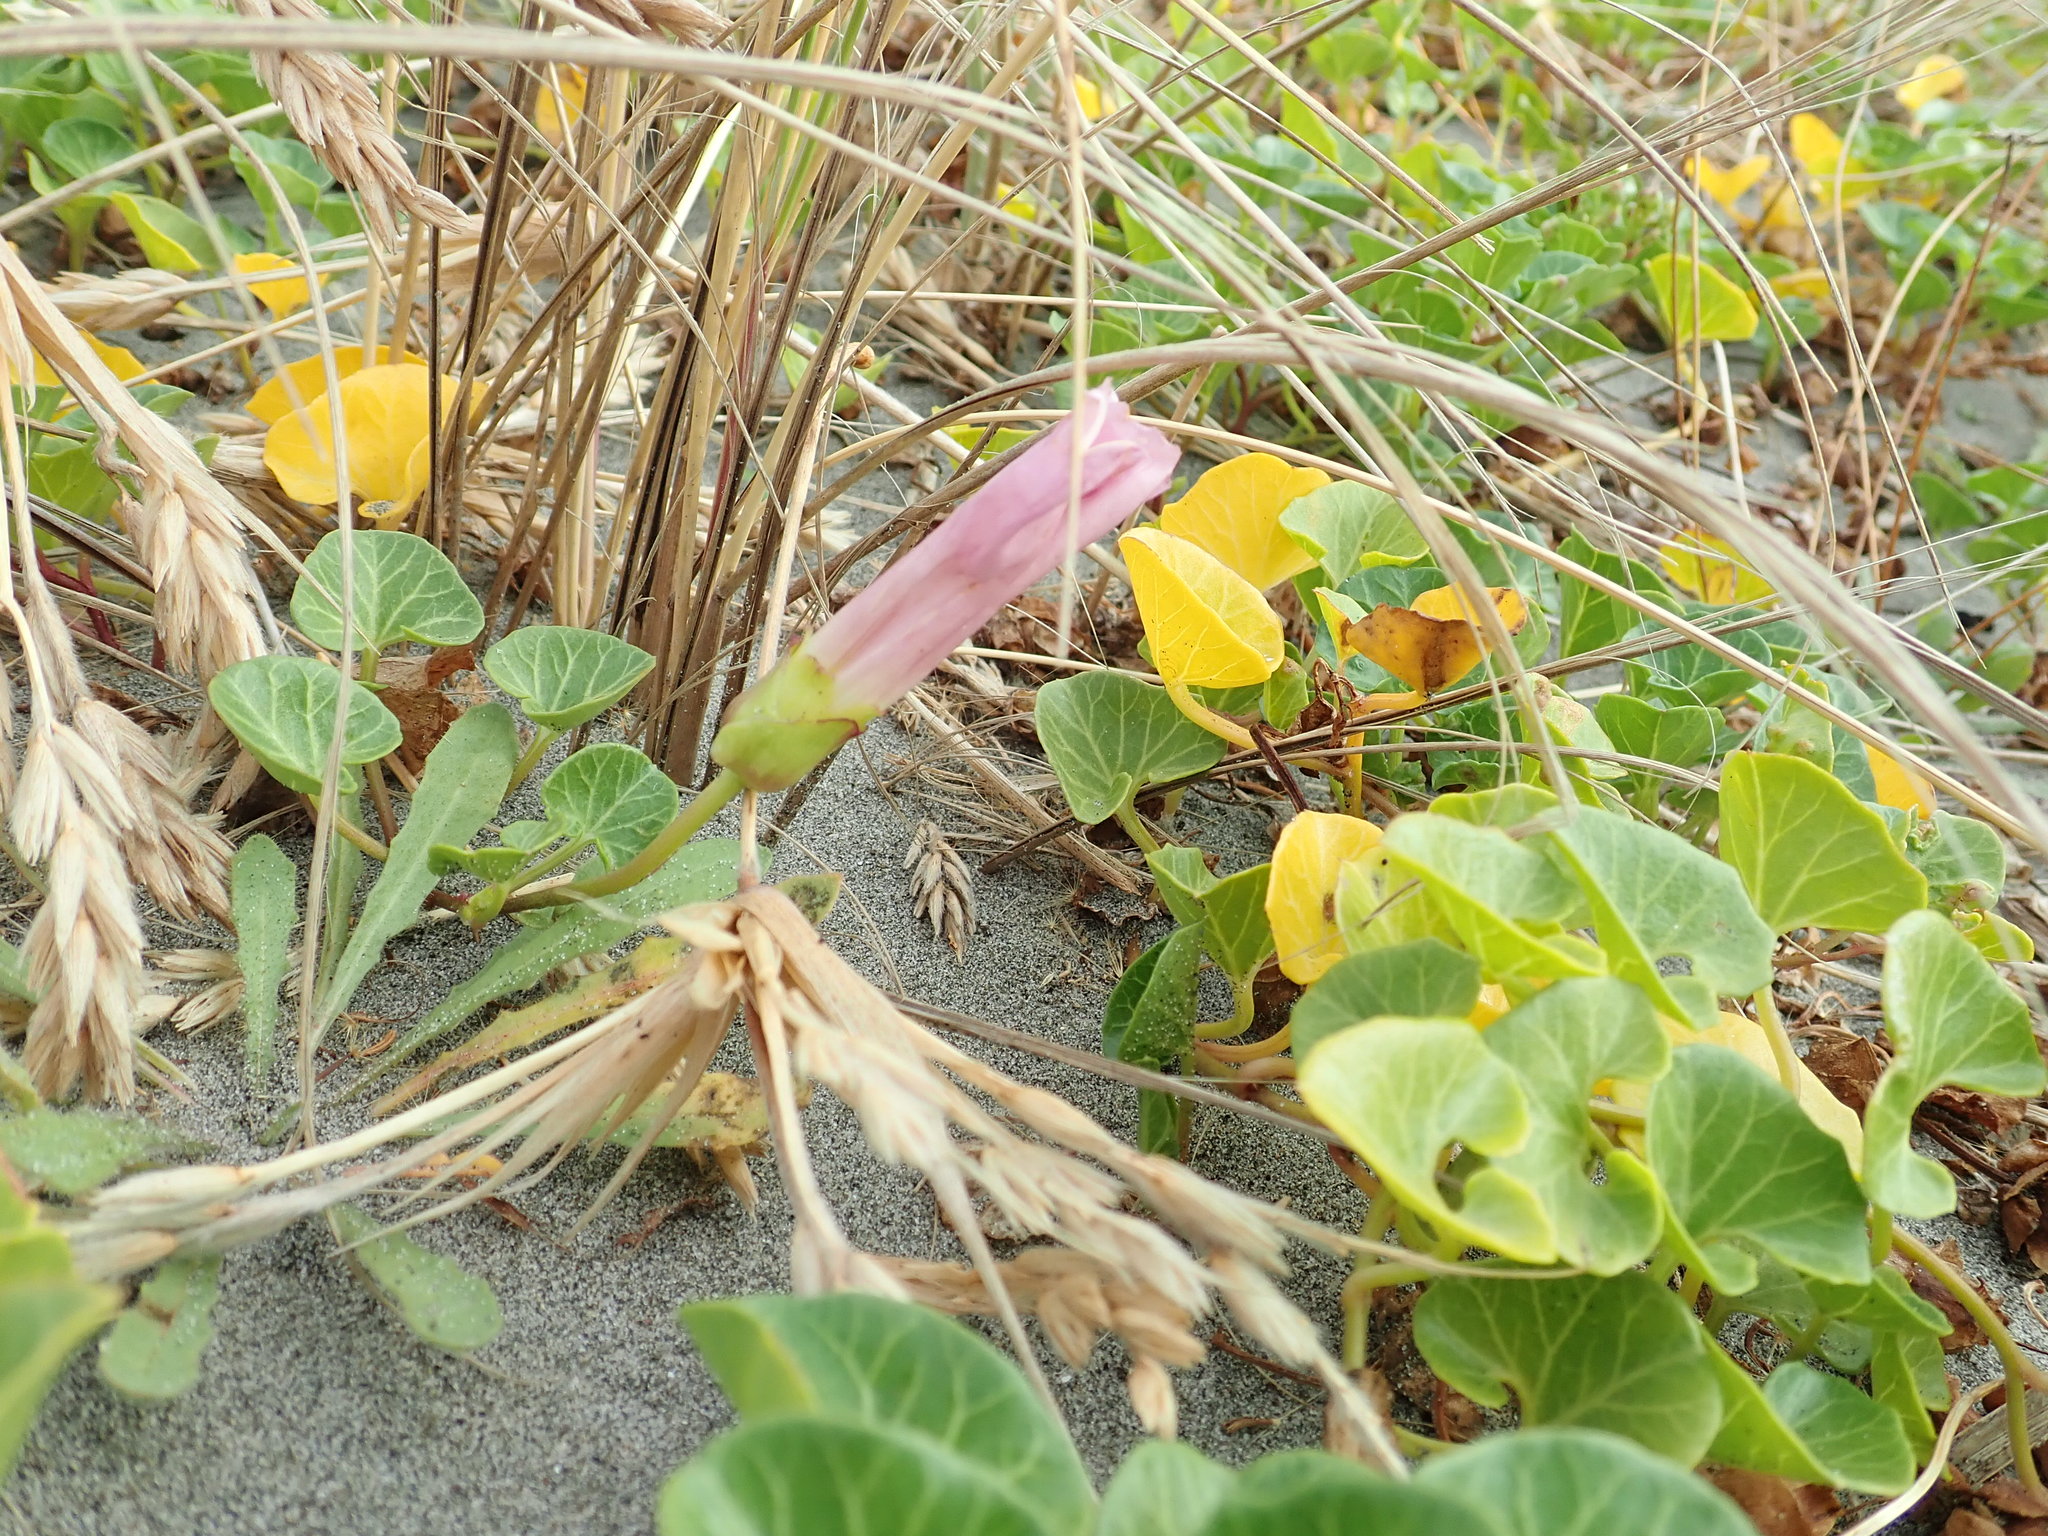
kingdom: Plantae
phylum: Tracheophyta
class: Magnoliopsida
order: Solanales
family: Convolvulaceae
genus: Calystegia
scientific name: Calystegia soldanella
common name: Sea bindweed
